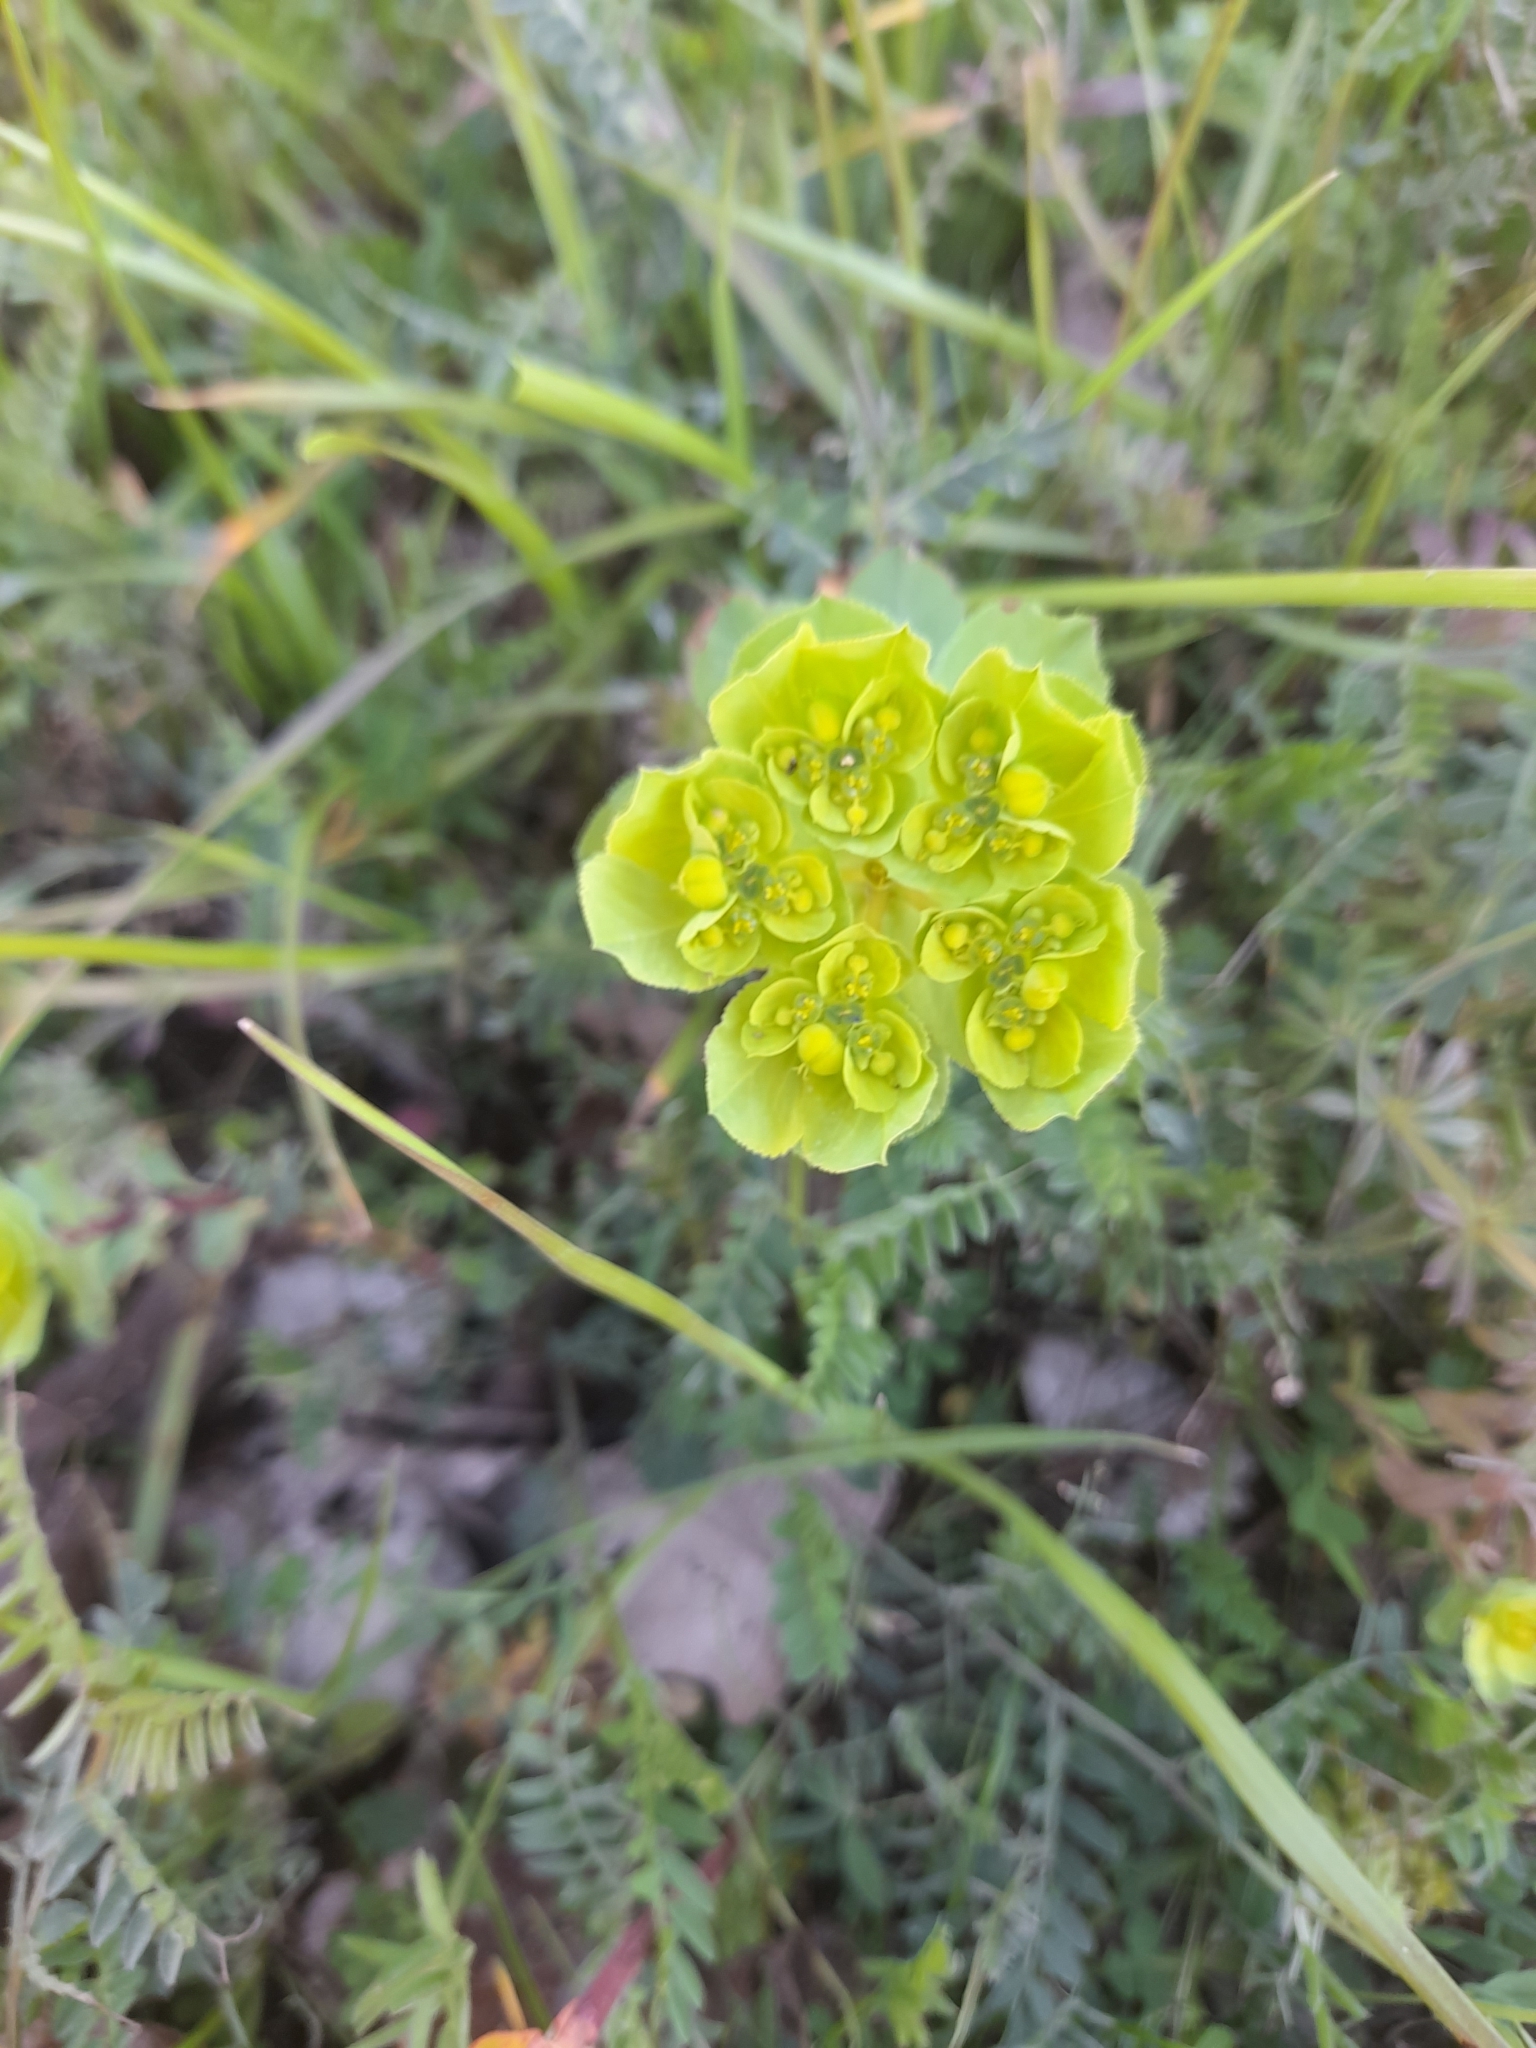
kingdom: Plantae
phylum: Tracheophyta
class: Magnoliopsida
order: Malpighiales
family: Euphorbiaceae
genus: Euphorbia
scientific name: Euphorbia helioscopia
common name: Sun spurge
